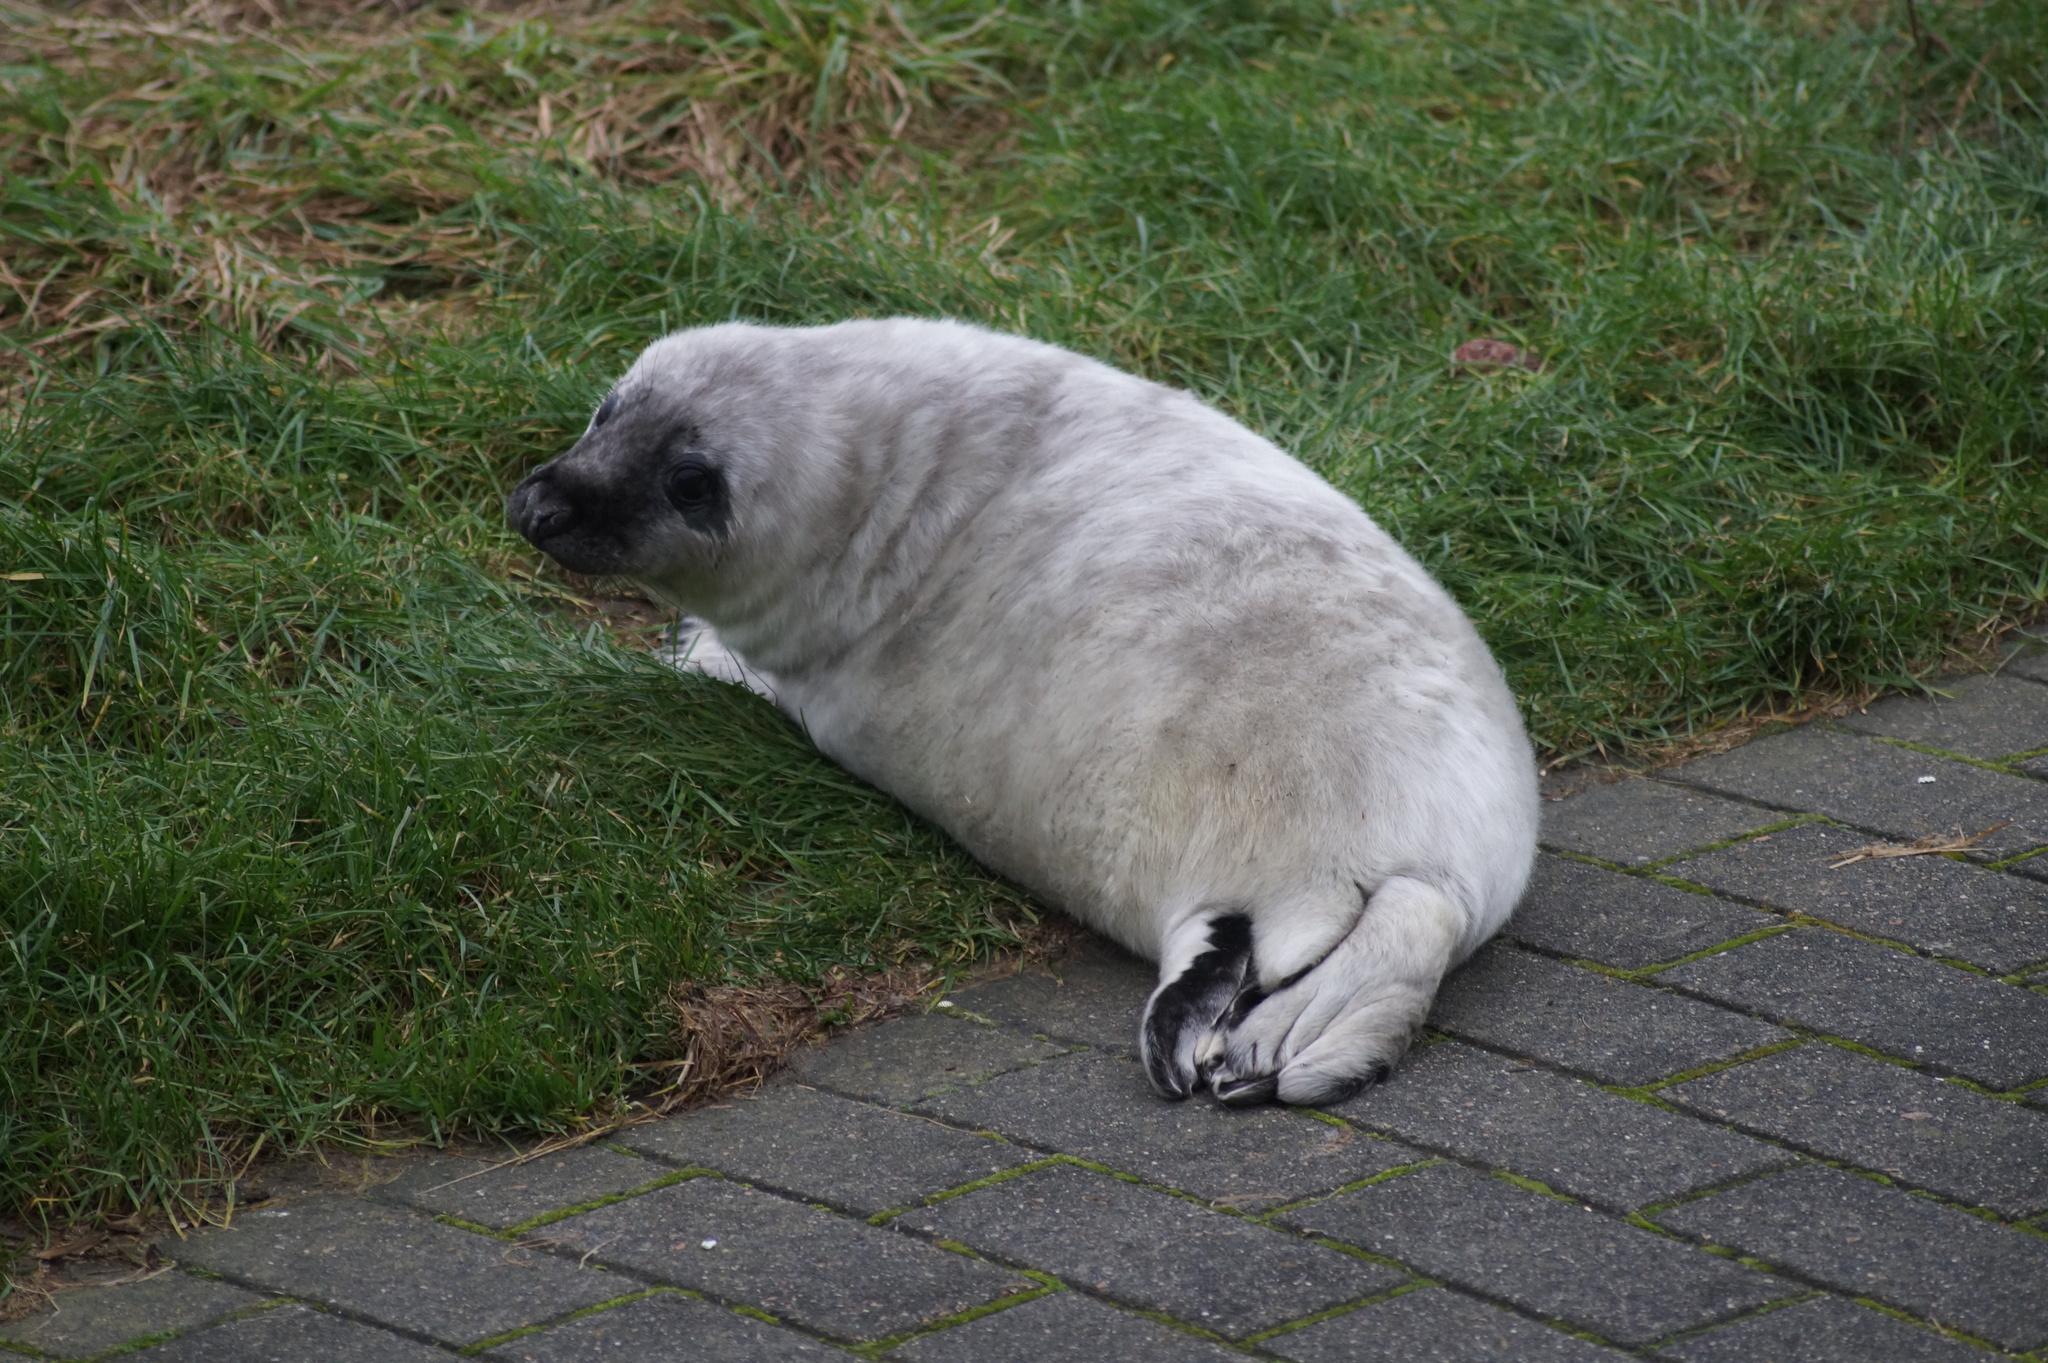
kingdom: Animalia
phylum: Chordata
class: Mammalia
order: Carnivora
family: Phocidae
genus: Halichoerus
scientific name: Halichoerus grypus
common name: Grey seal
